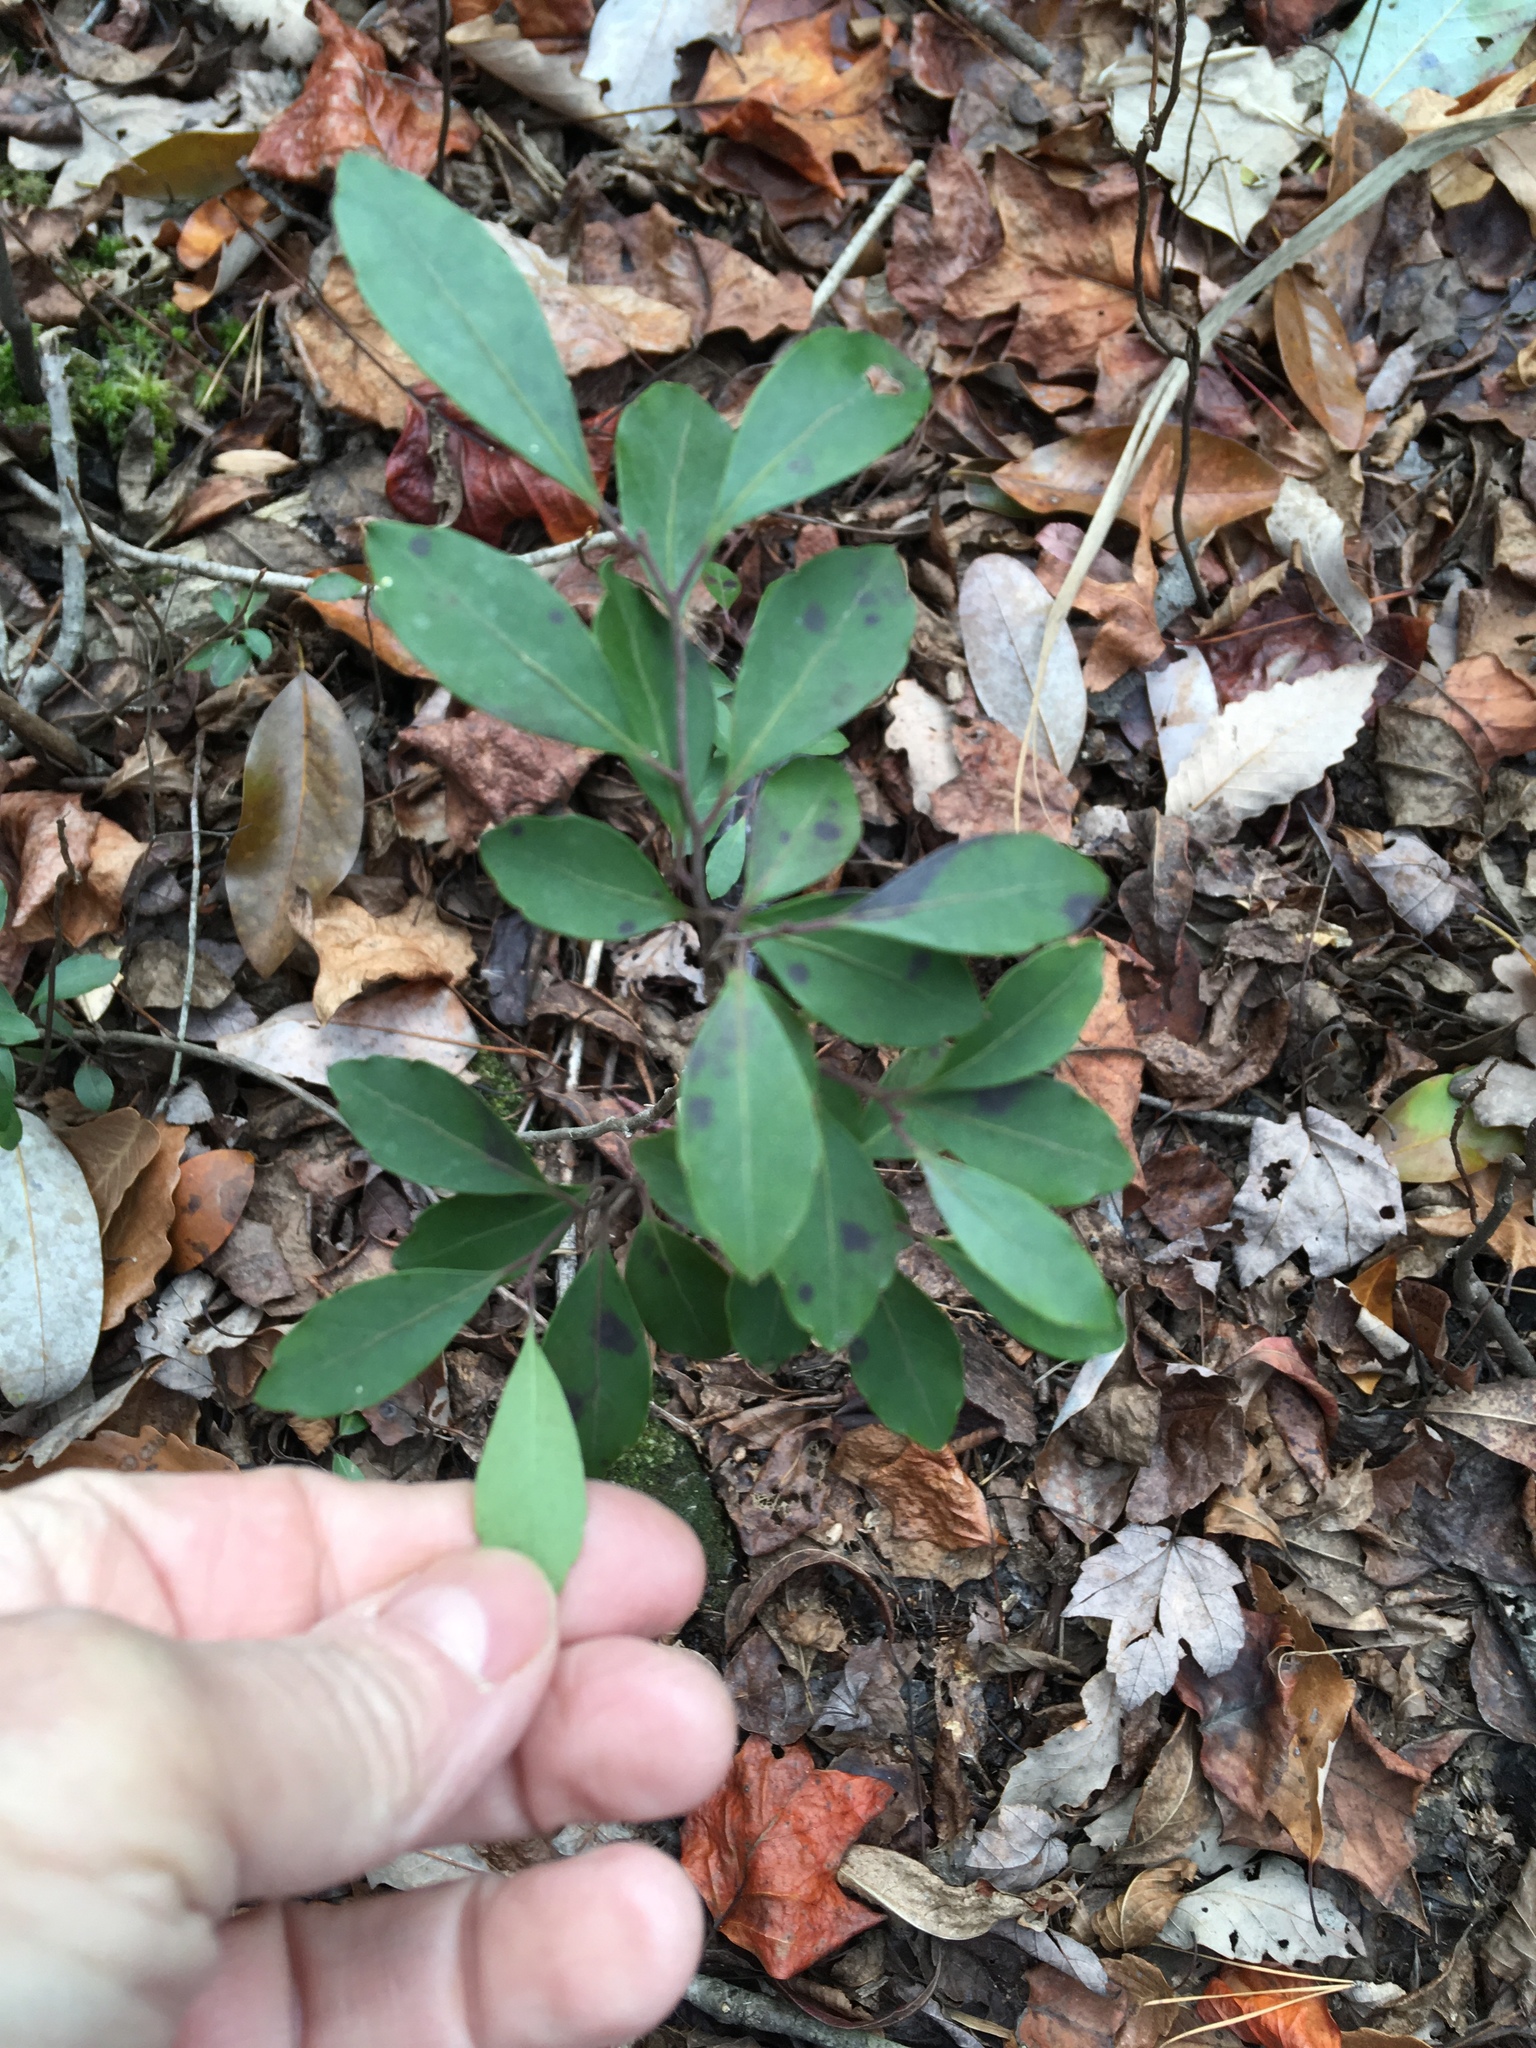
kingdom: Plantae
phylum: Tracheophyta
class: Magnoliopsida
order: Aquifoliales
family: Aquifoliaceae
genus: Ilex
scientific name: Ilex glabra
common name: Bitter gallberry
